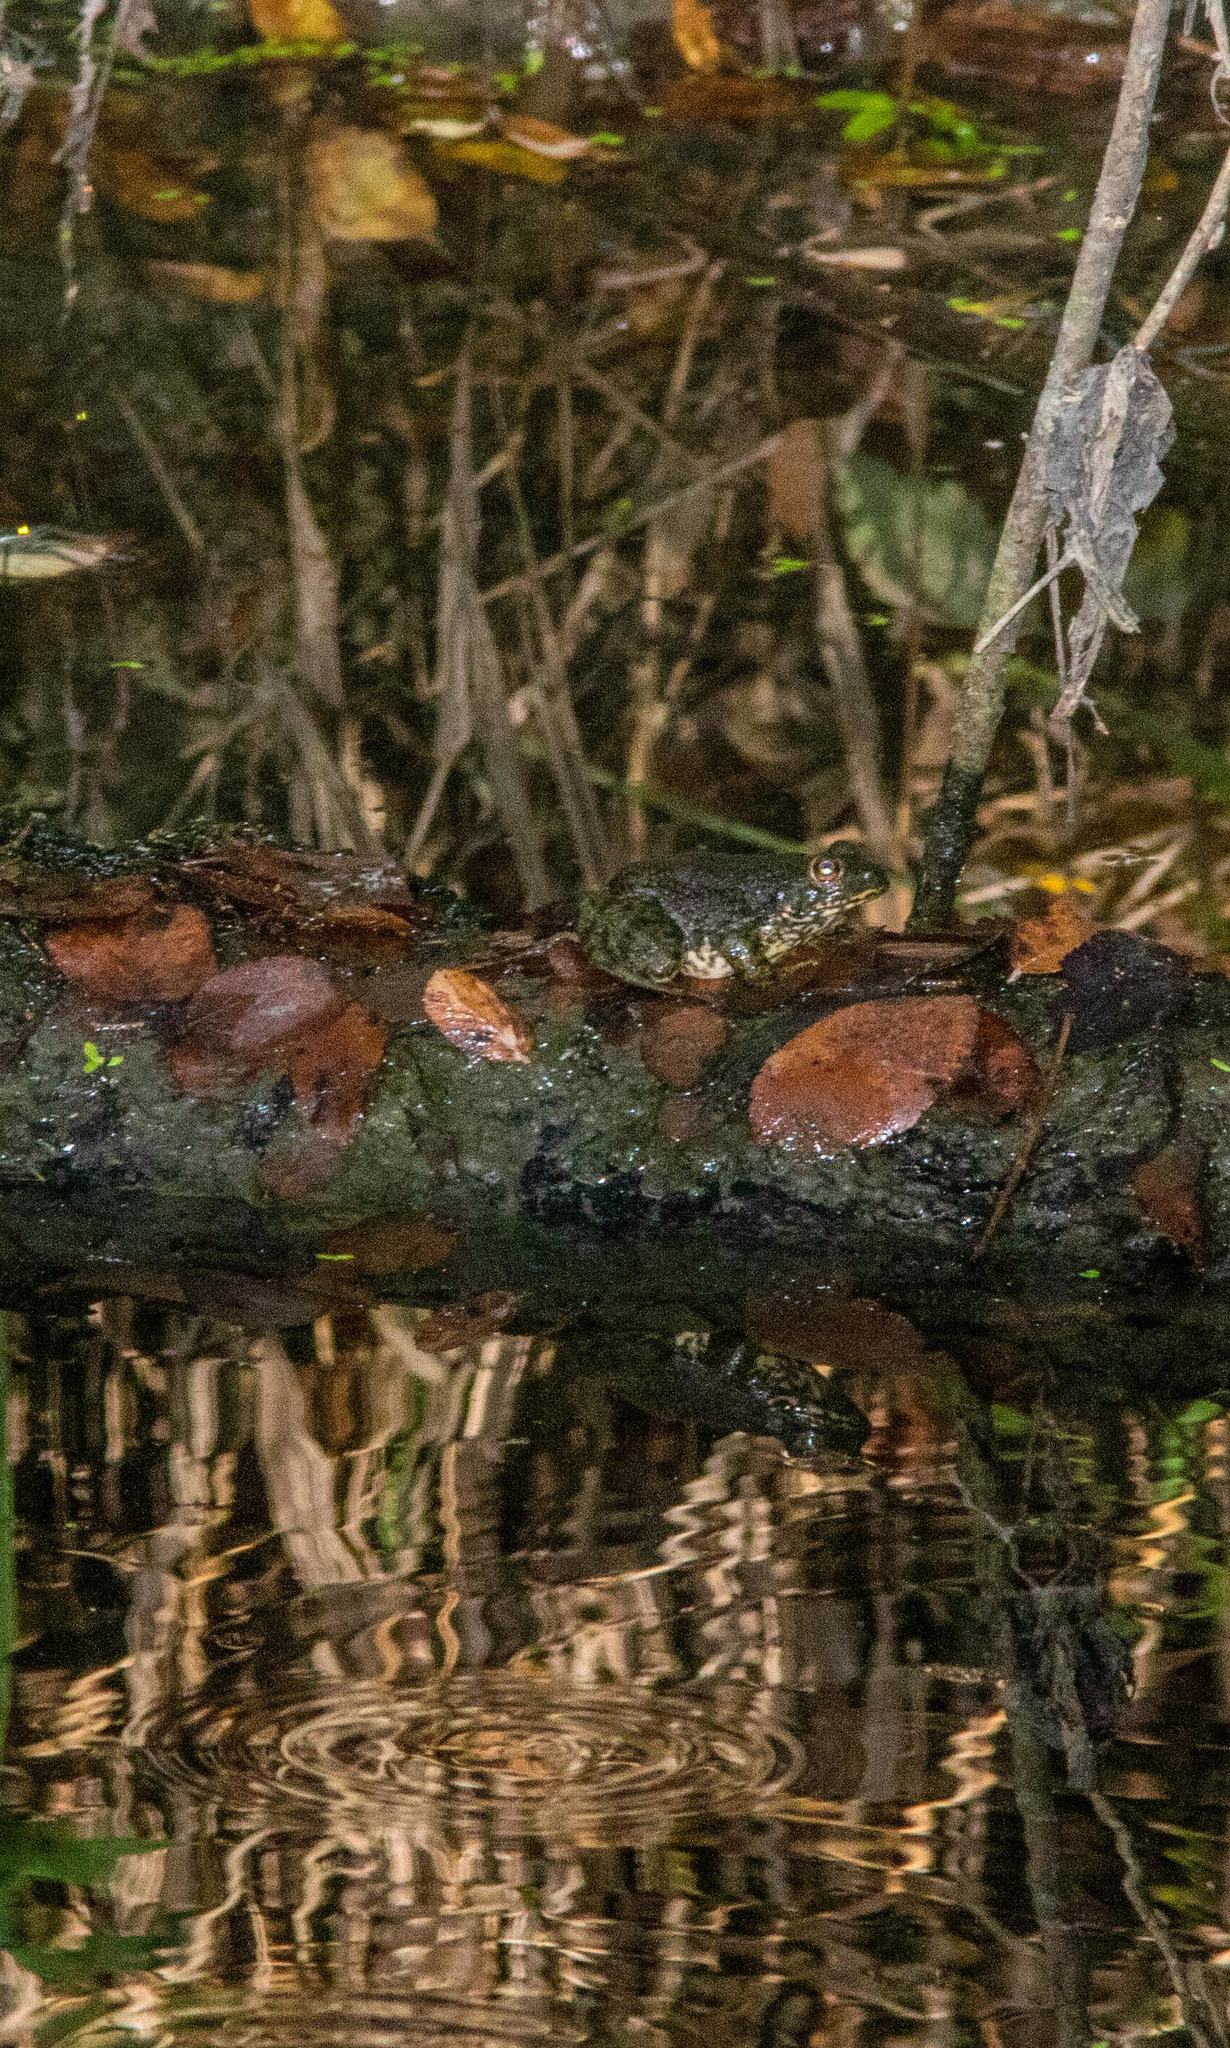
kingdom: Animalia
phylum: Chordata
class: Amphibia
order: Anura
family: Ranidae
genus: Lithobates
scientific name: Lithobates catesbeianus
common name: American bullfrog
